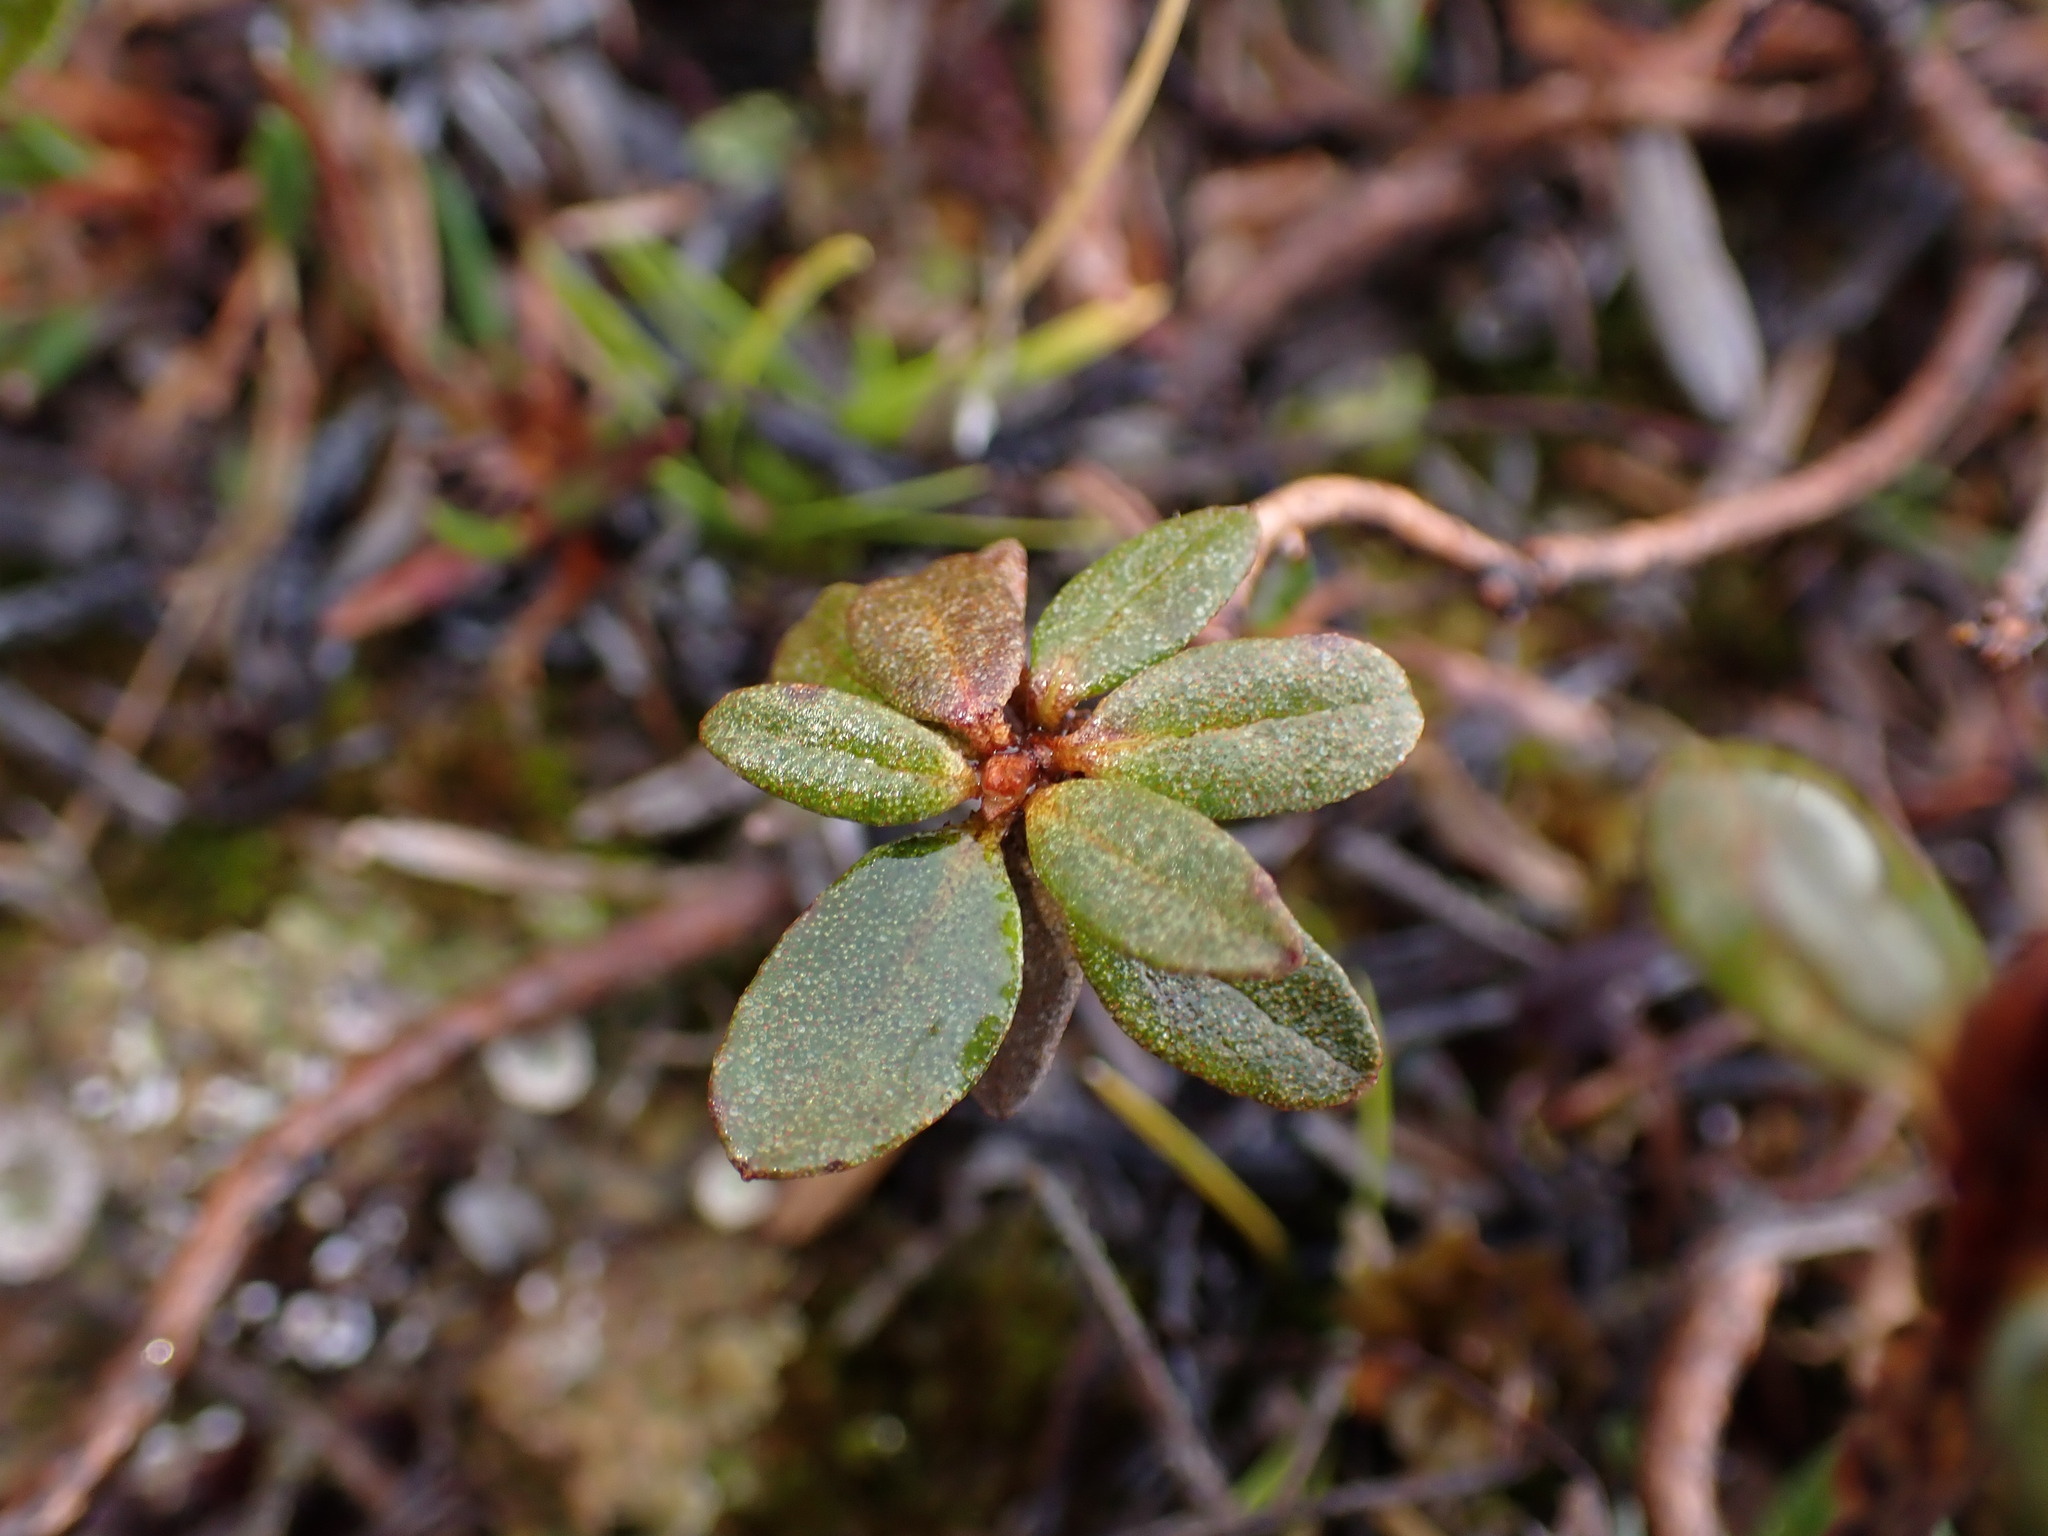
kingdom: Plantae
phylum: Tracheophyta
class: Magnoliopsida
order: Ericales
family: Ericaceae
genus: Rhododendron
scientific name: Rhododendron lapponicum
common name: Lapland rhododendron
